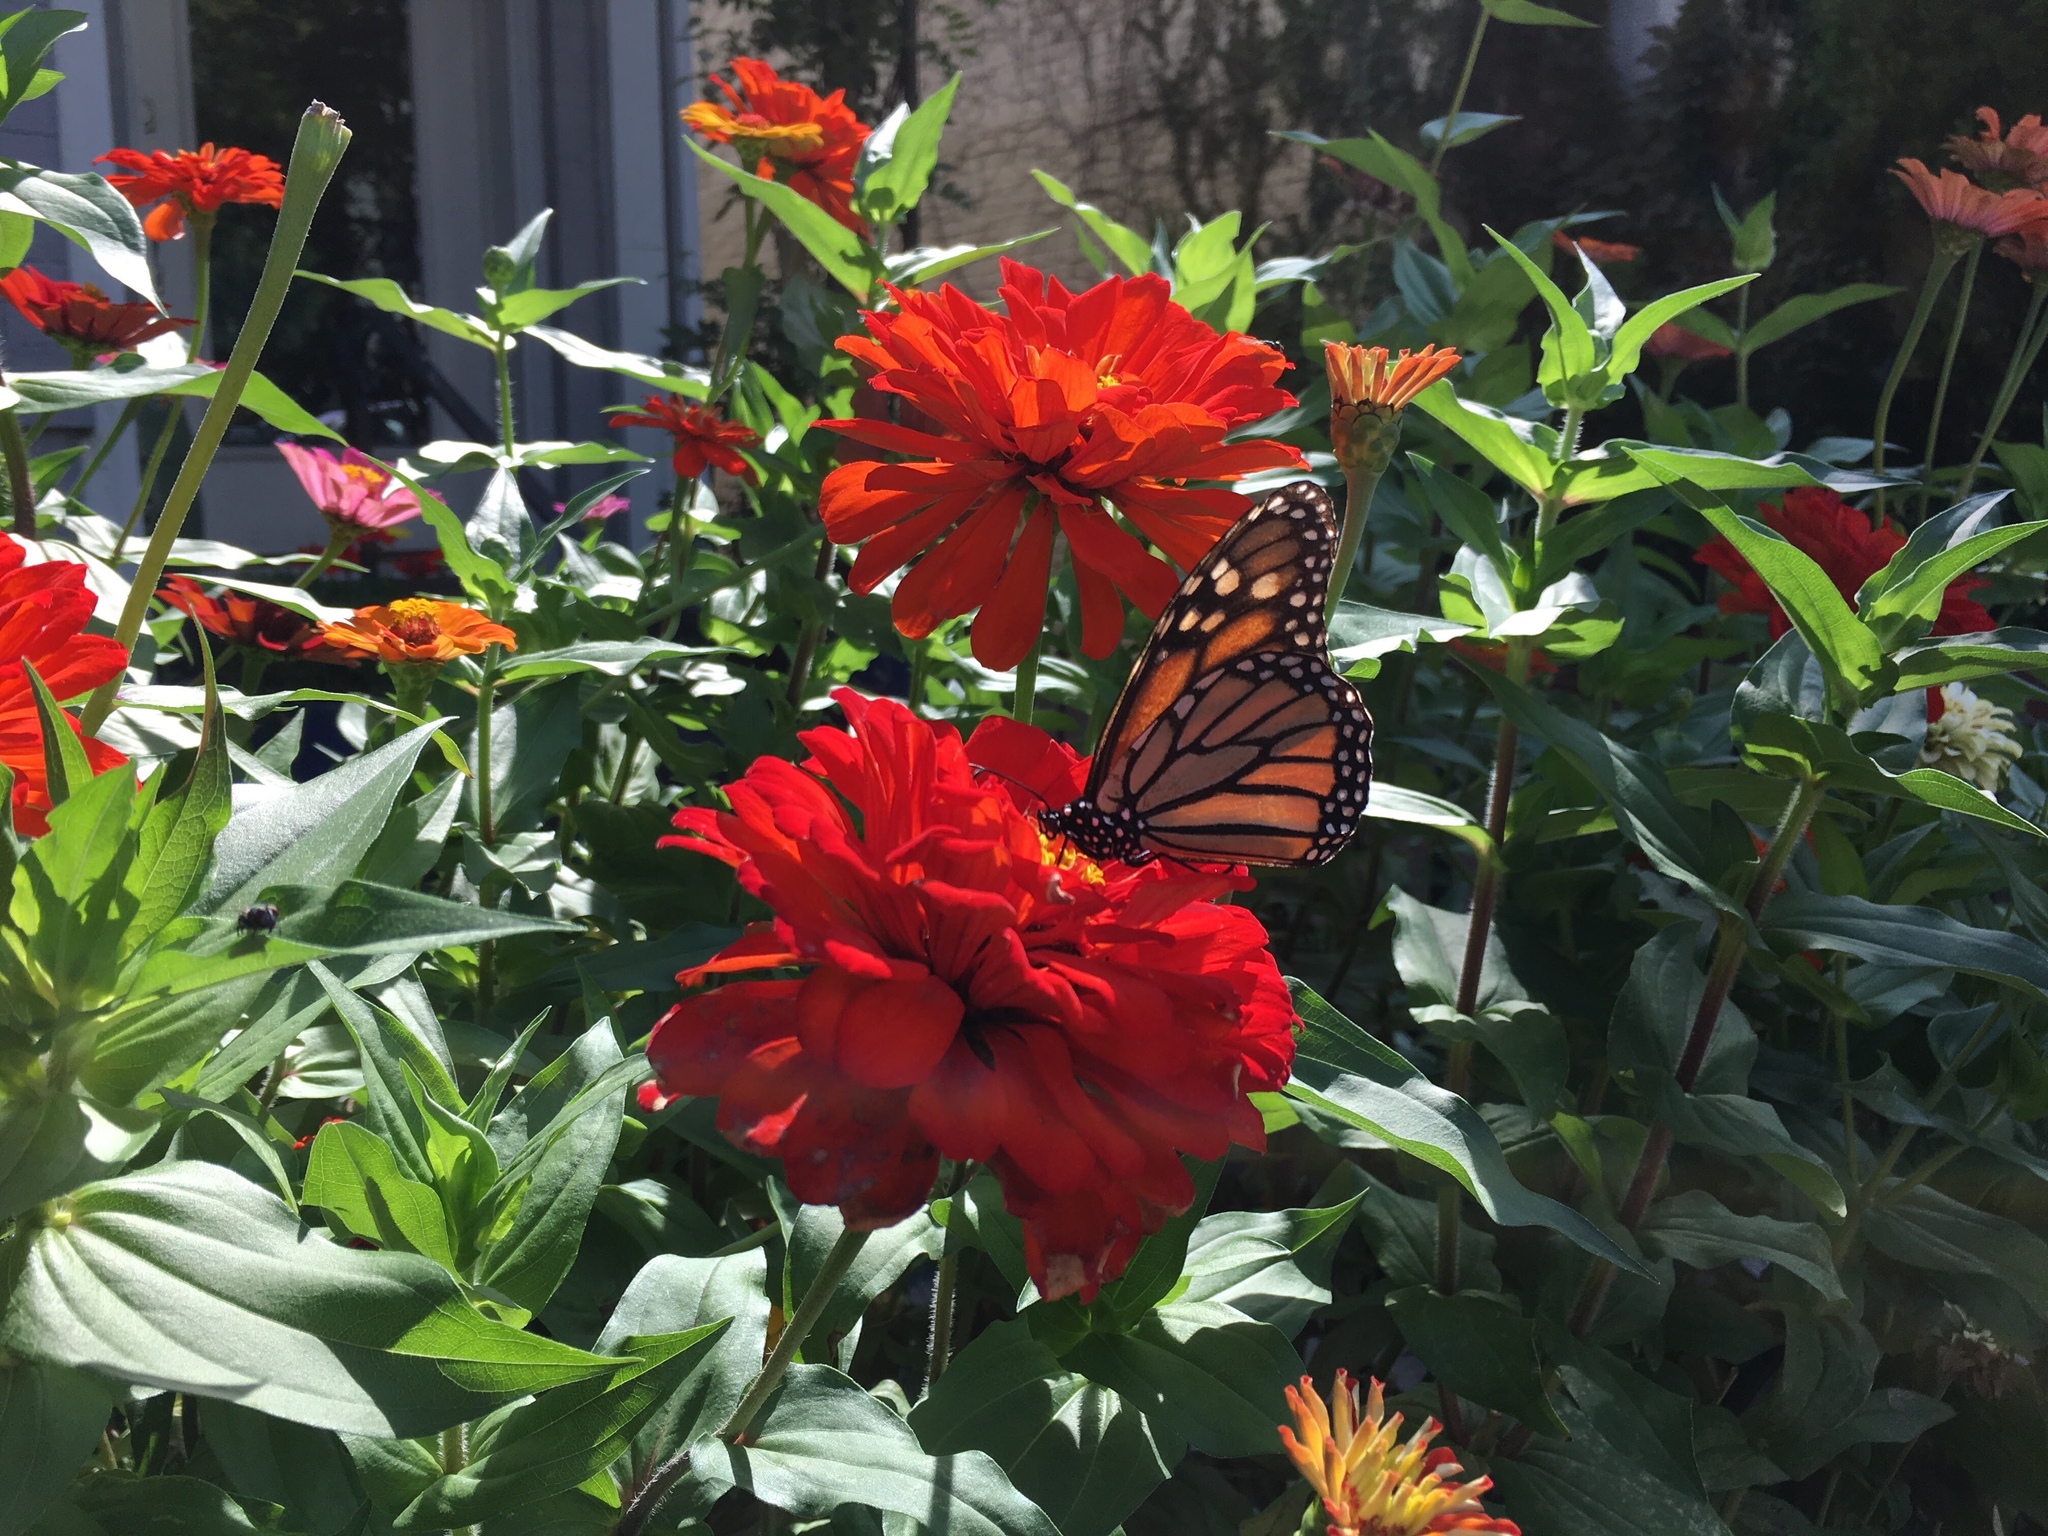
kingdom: Animalia
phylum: Arthropoda
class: Insecta
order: Lepidoptera
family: Nymphalidae
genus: Danaus
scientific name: Danaus plexippus
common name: Monarch
